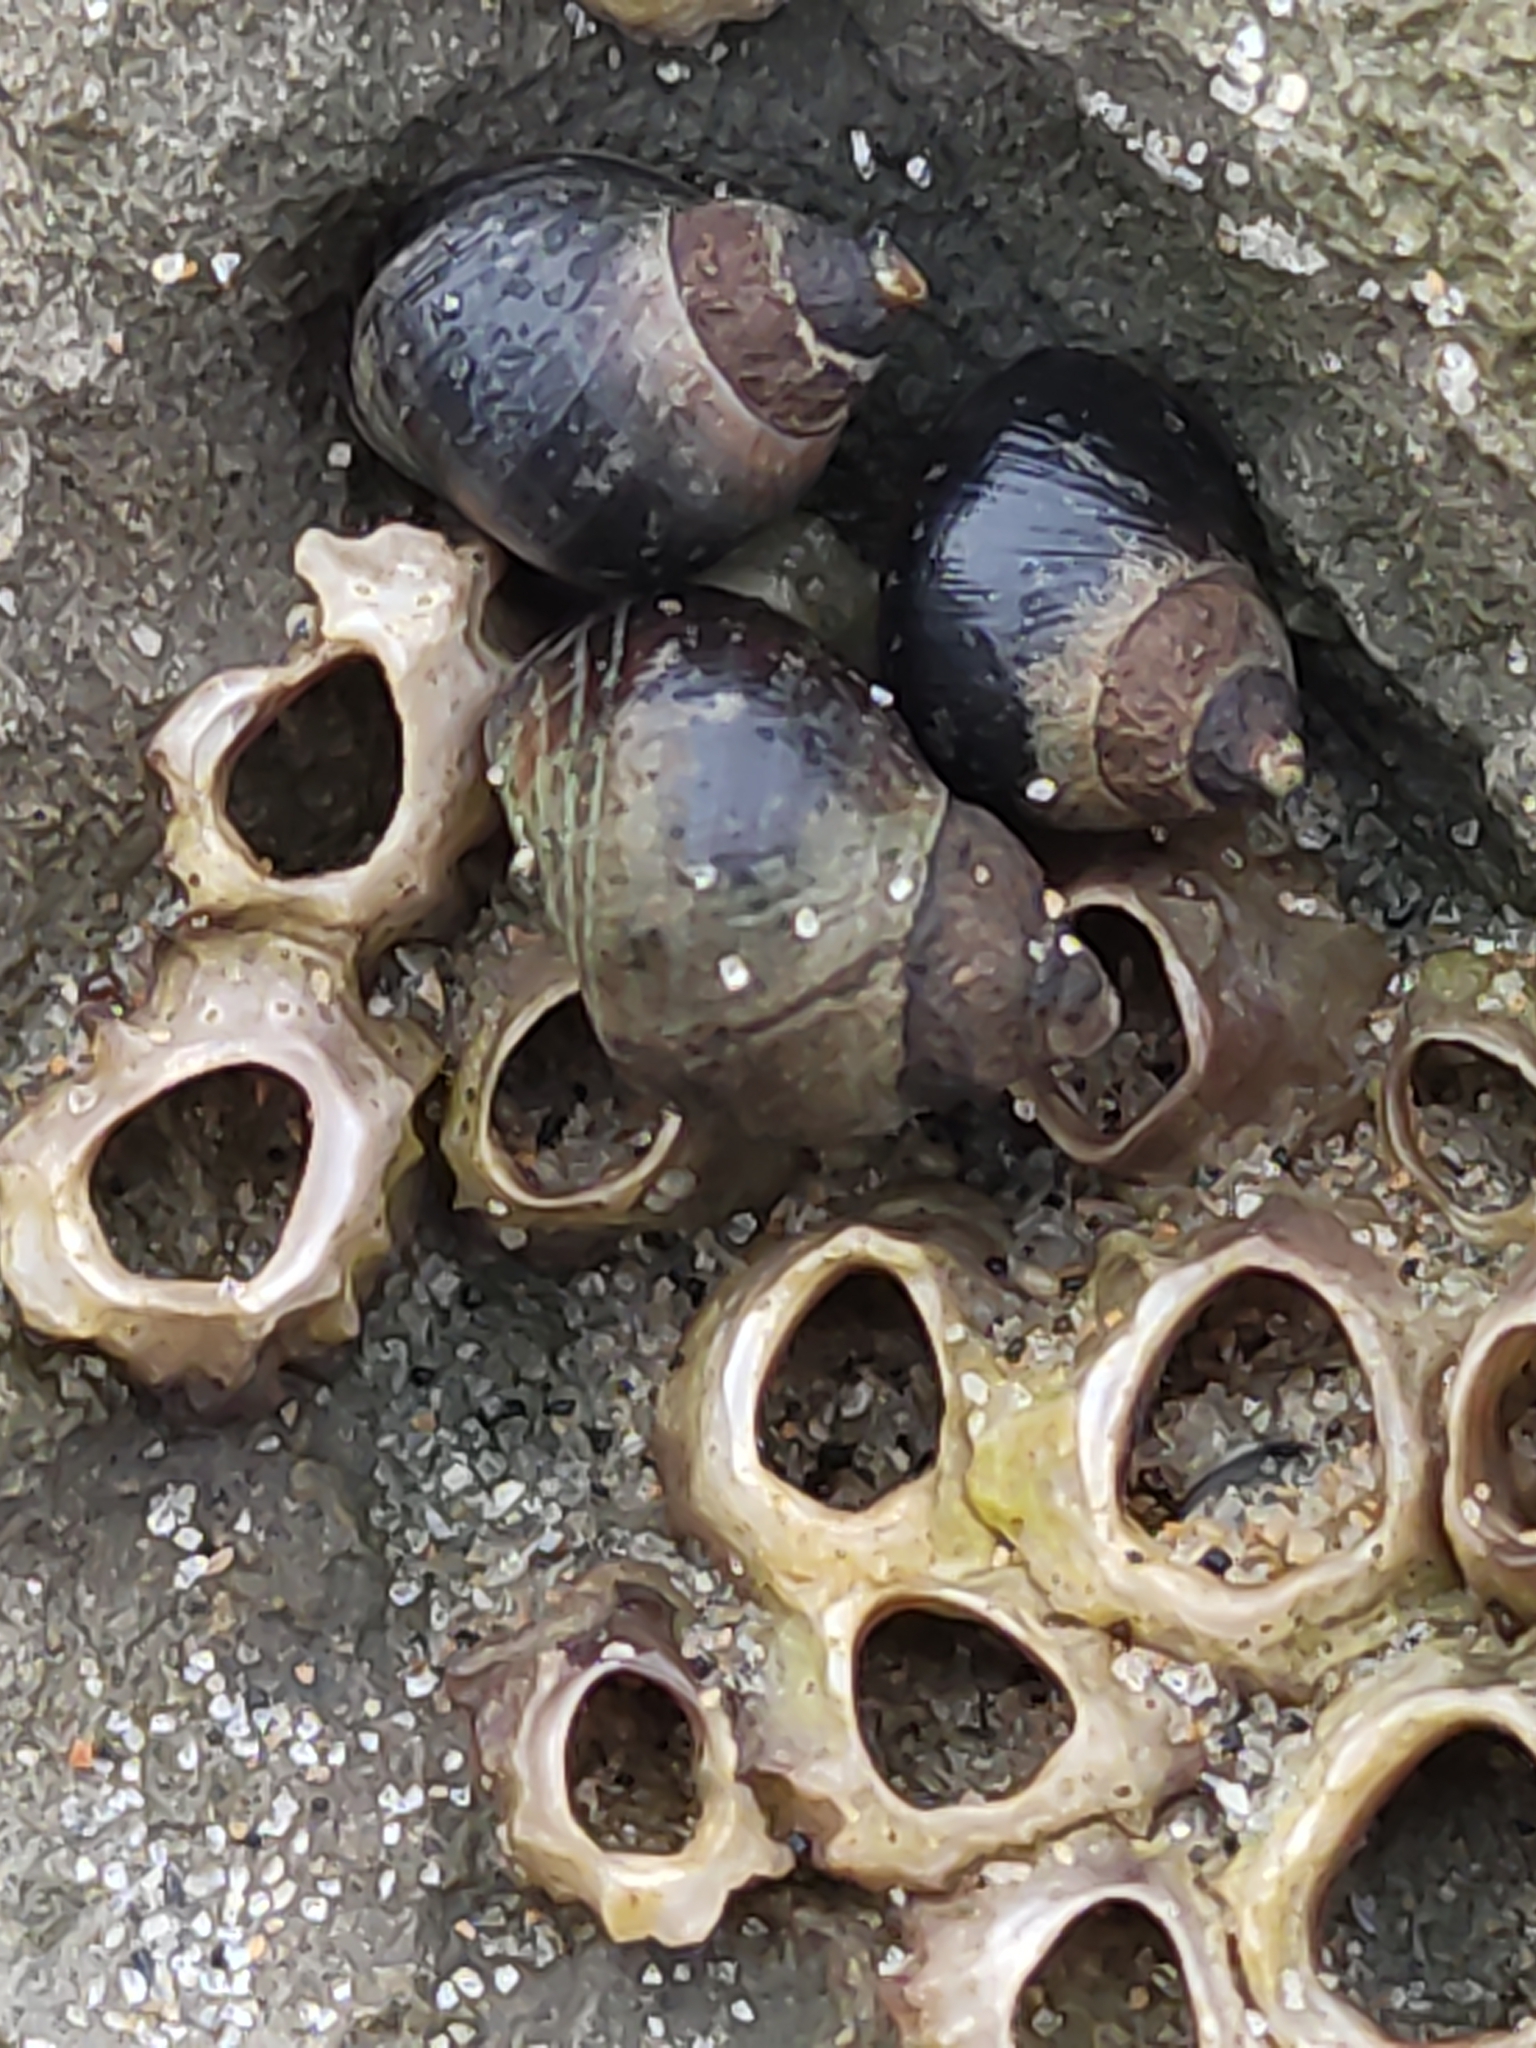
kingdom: Animalia
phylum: Mollusca
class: Gastropoda
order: Littorinimorpha
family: Littorinidae
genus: Austrolittorina
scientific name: Austrolittorina cincta
